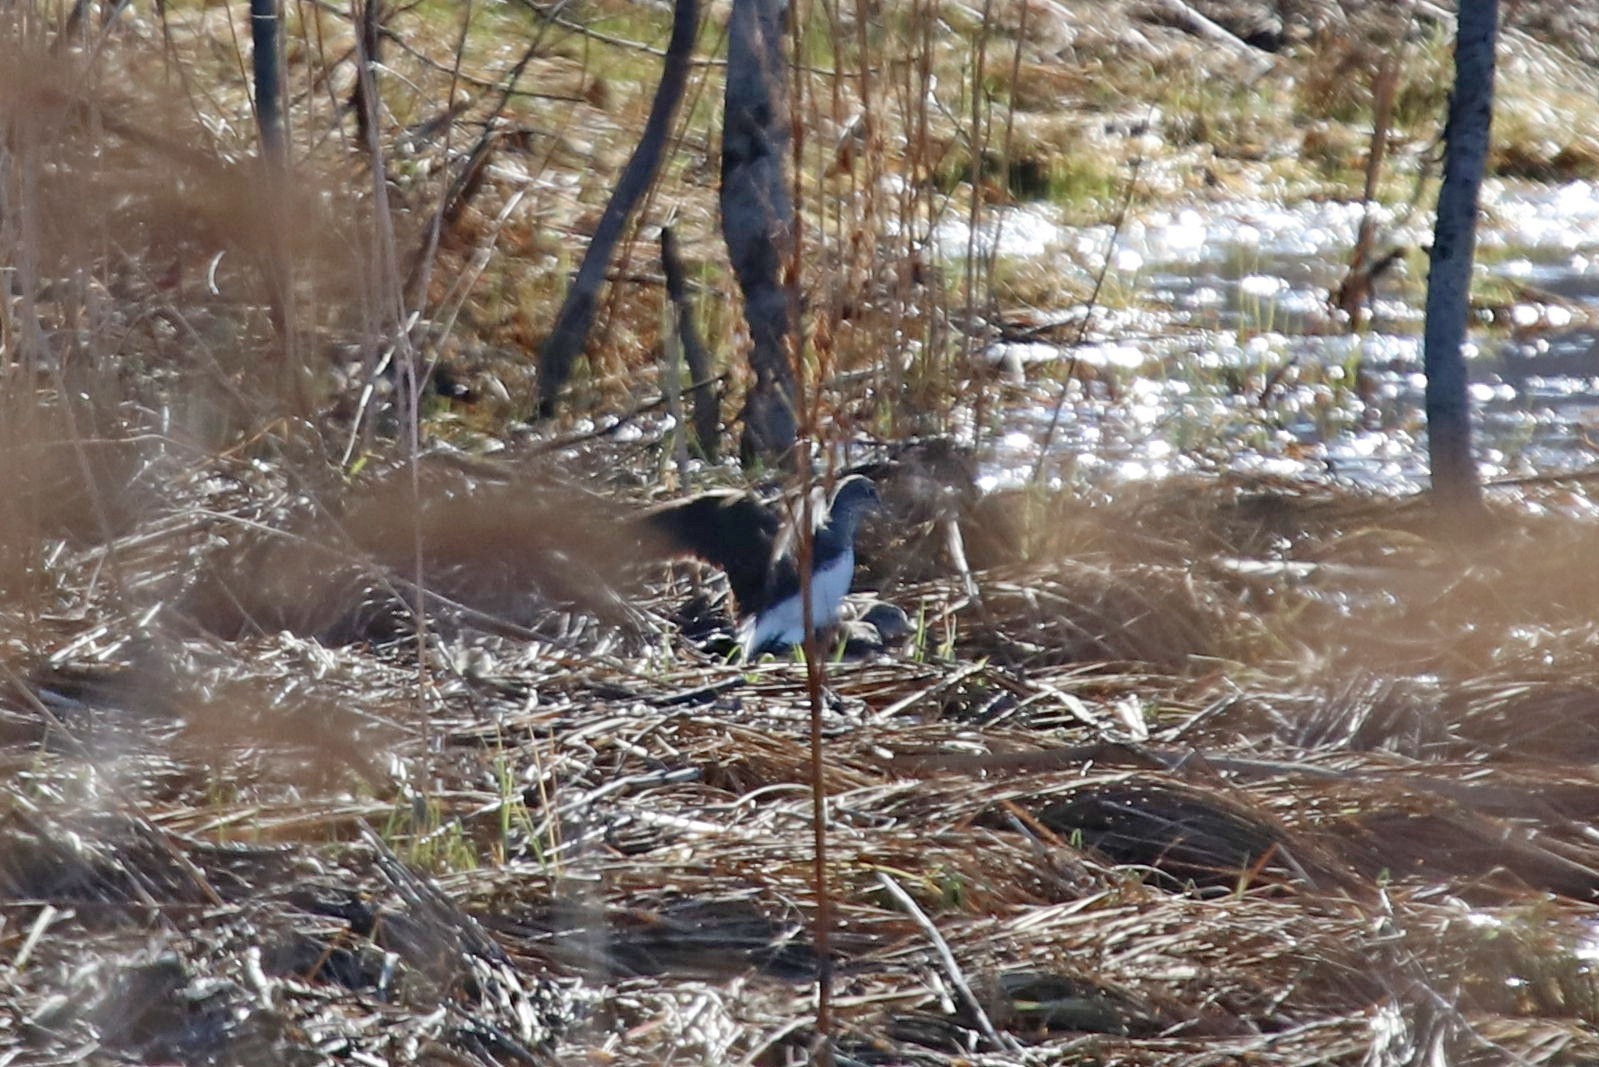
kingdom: Animalia
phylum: Chordata
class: Aves
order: Charadriiformes
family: Scolopacidae
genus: Tringa
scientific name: Tringa ochropus
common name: Green sandpiper
